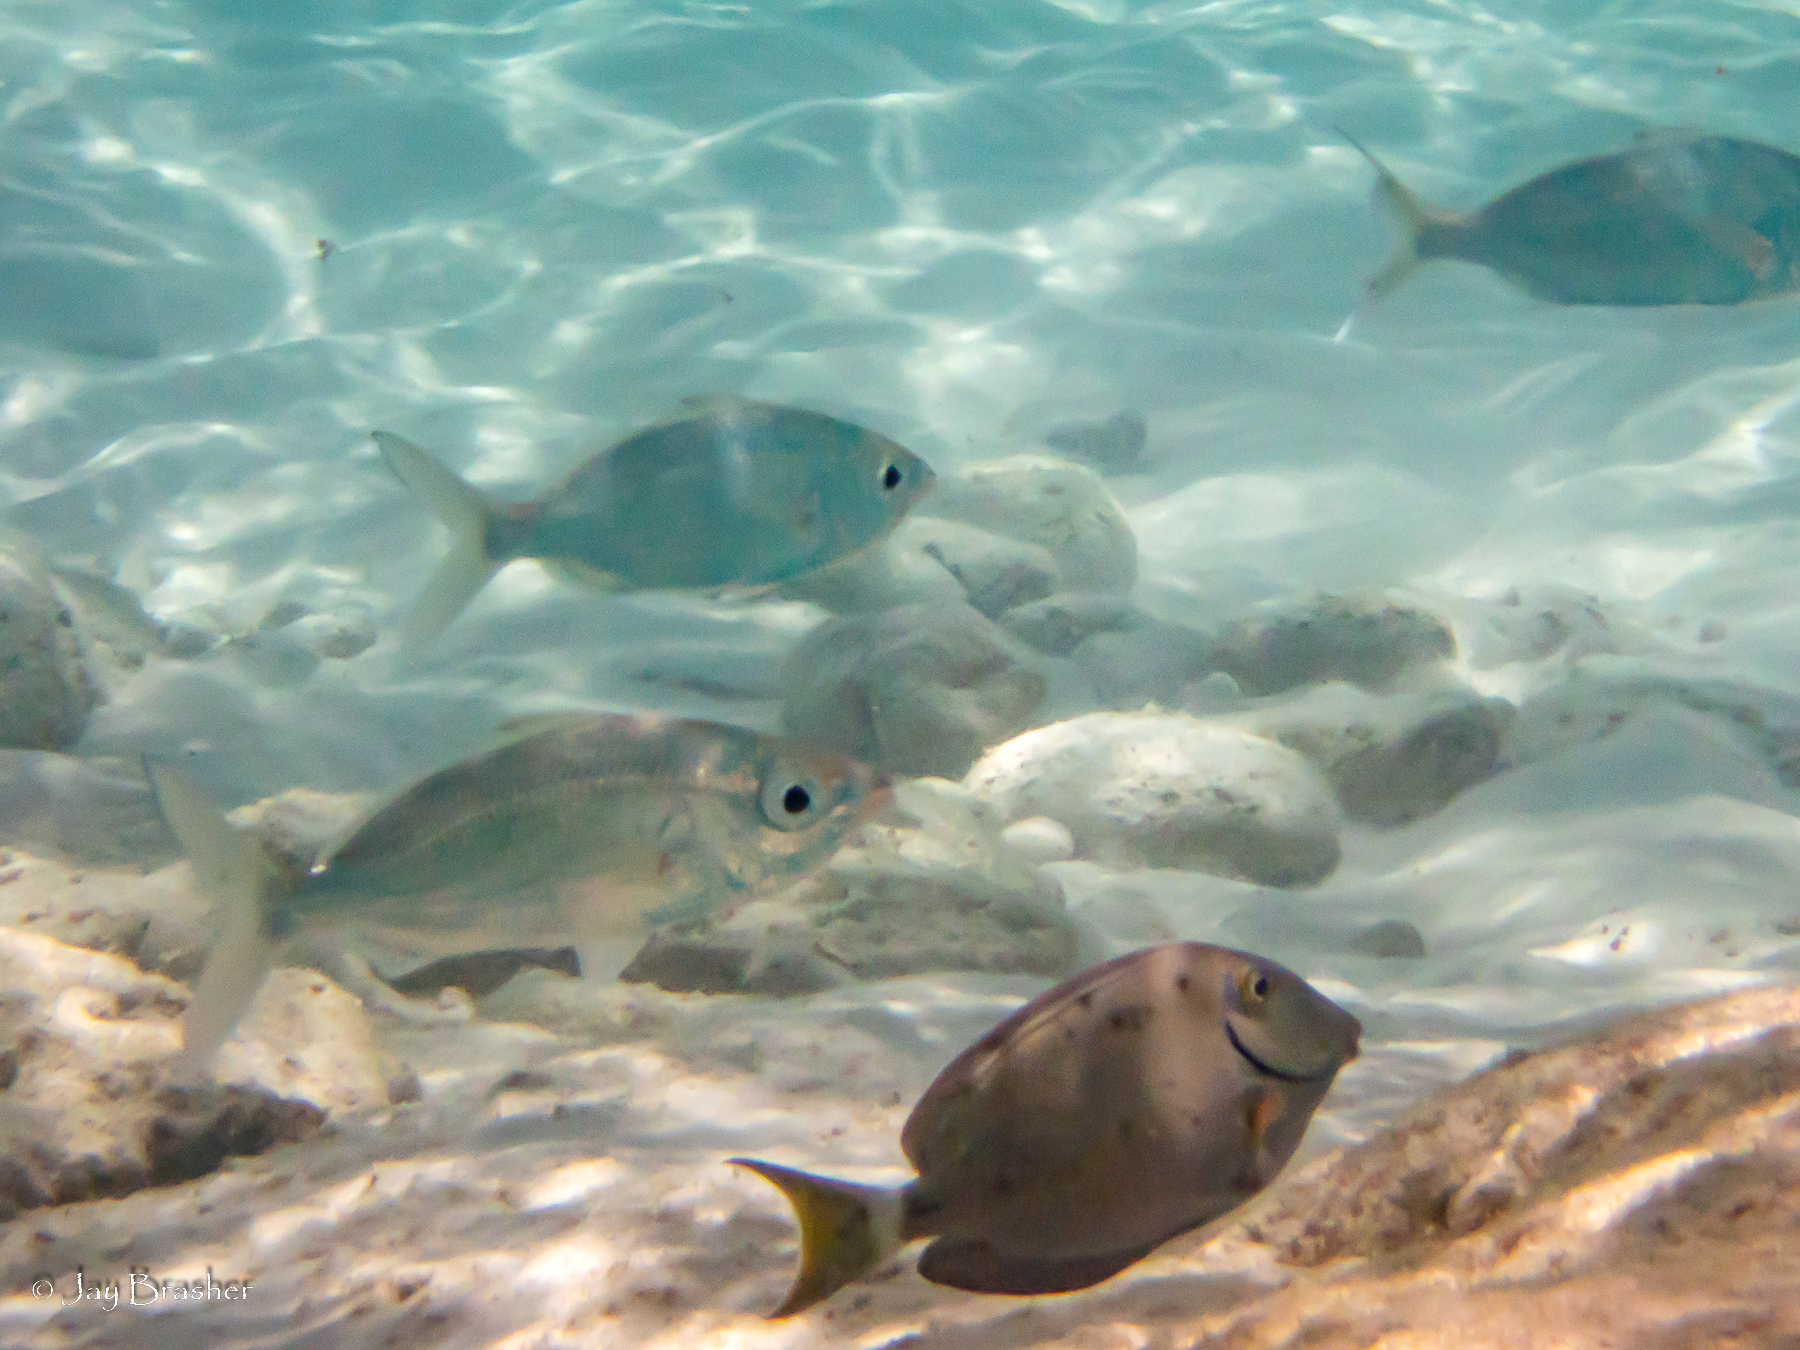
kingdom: Animalia
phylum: Chordata
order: Perciformes
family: Acanthuridae
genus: Acanthurus
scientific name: Acanthurus bahianus
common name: Ocean surgeon
